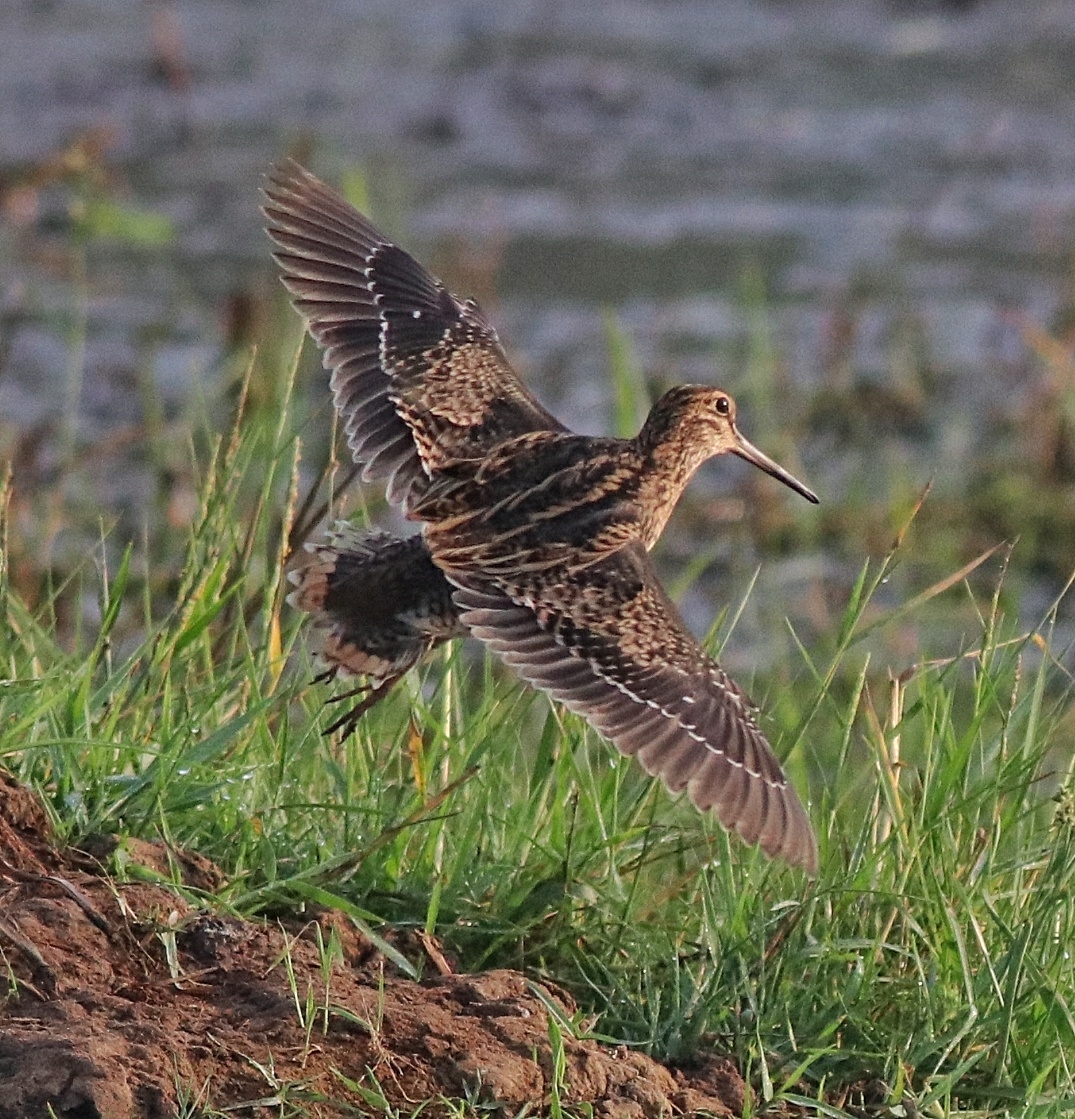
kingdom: Animalia
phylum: Chordata
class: Aves
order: Charadriiformes
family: Scolopacidae
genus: Gallinago
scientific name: Gallinago stenura
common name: Pin-tailed snipe
